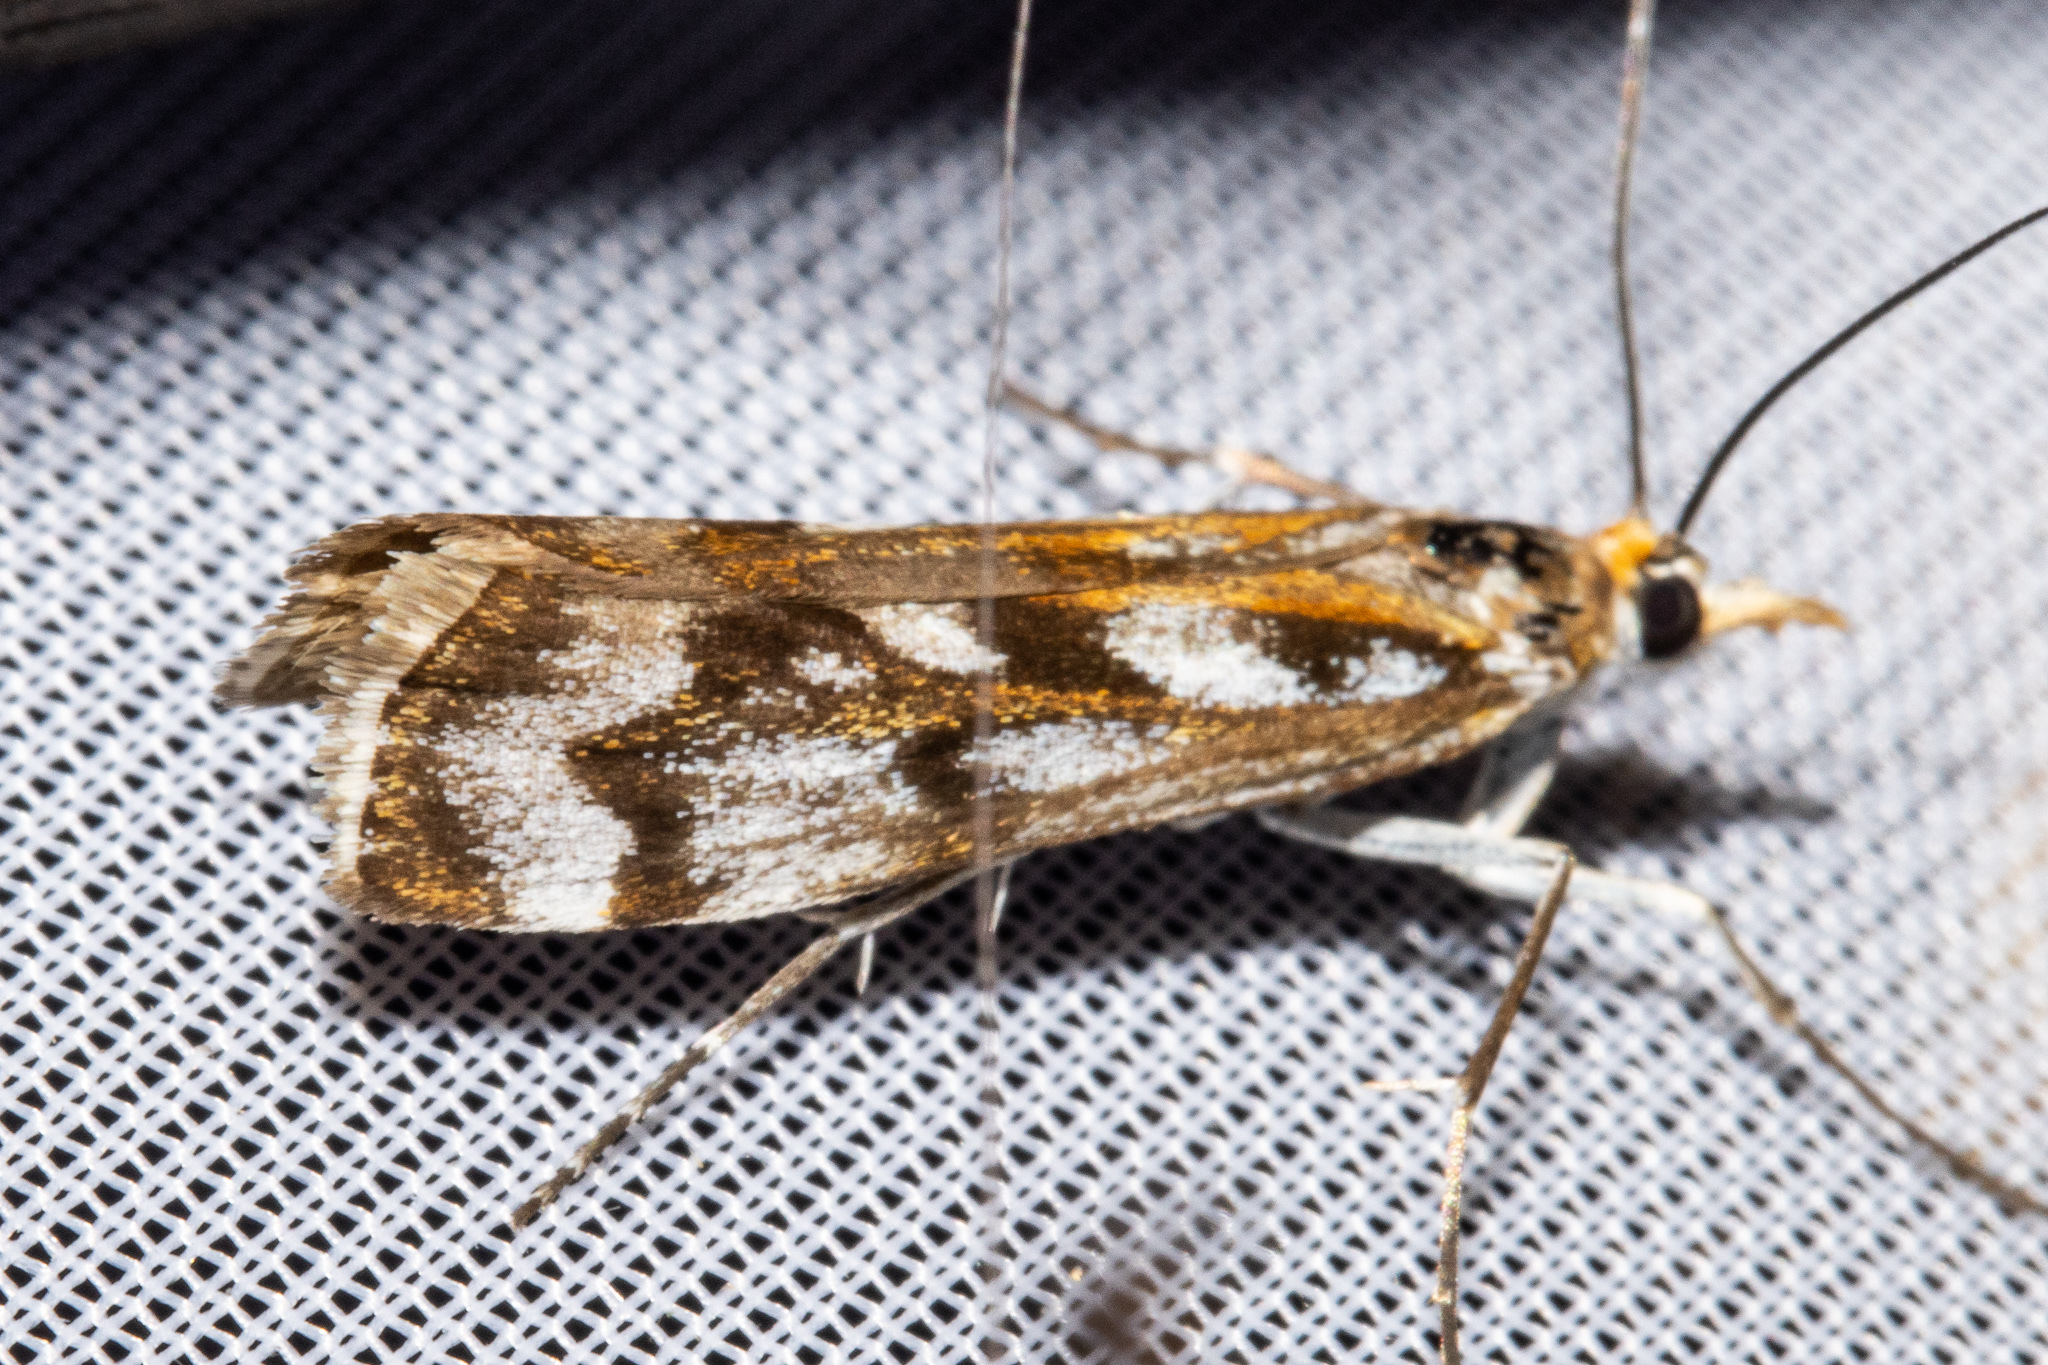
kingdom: Animalia
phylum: Arthropoda
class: Insecta
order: Lepidoptera
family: Crambidae
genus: Orocrambus
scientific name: Orocrambus xanthogrammus
